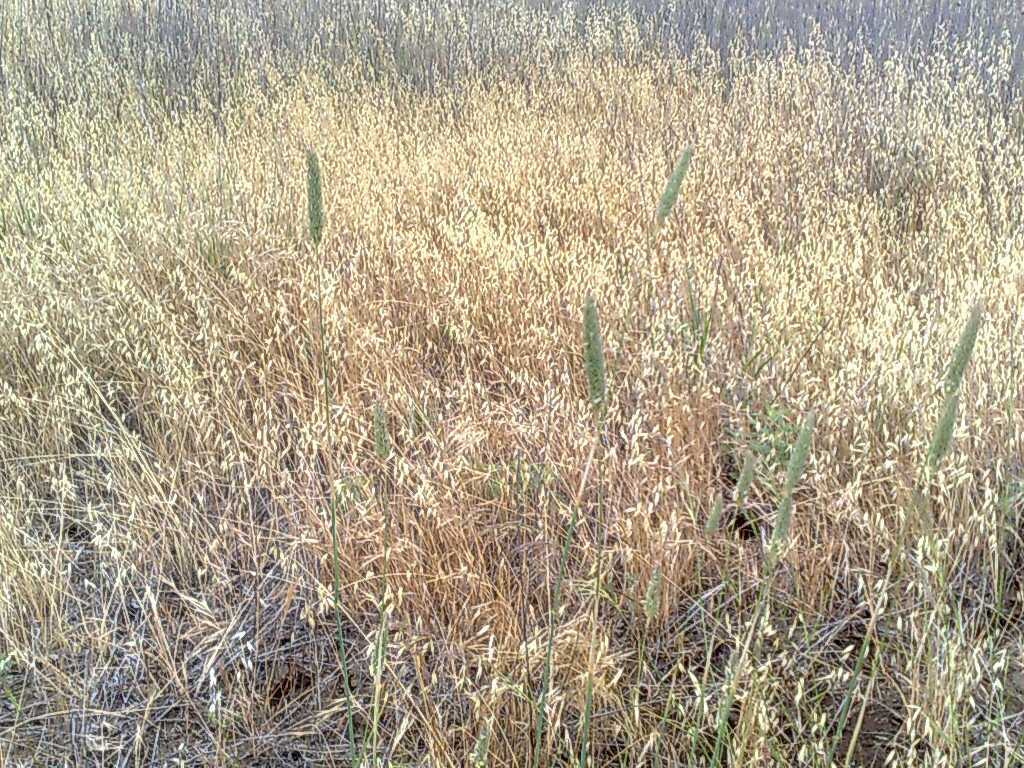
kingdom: Plantae
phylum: Tracheophyta
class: Liliopsida
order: Poales
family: Poaceae
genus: Avena
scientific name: Avena fatua
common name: Wild oat
